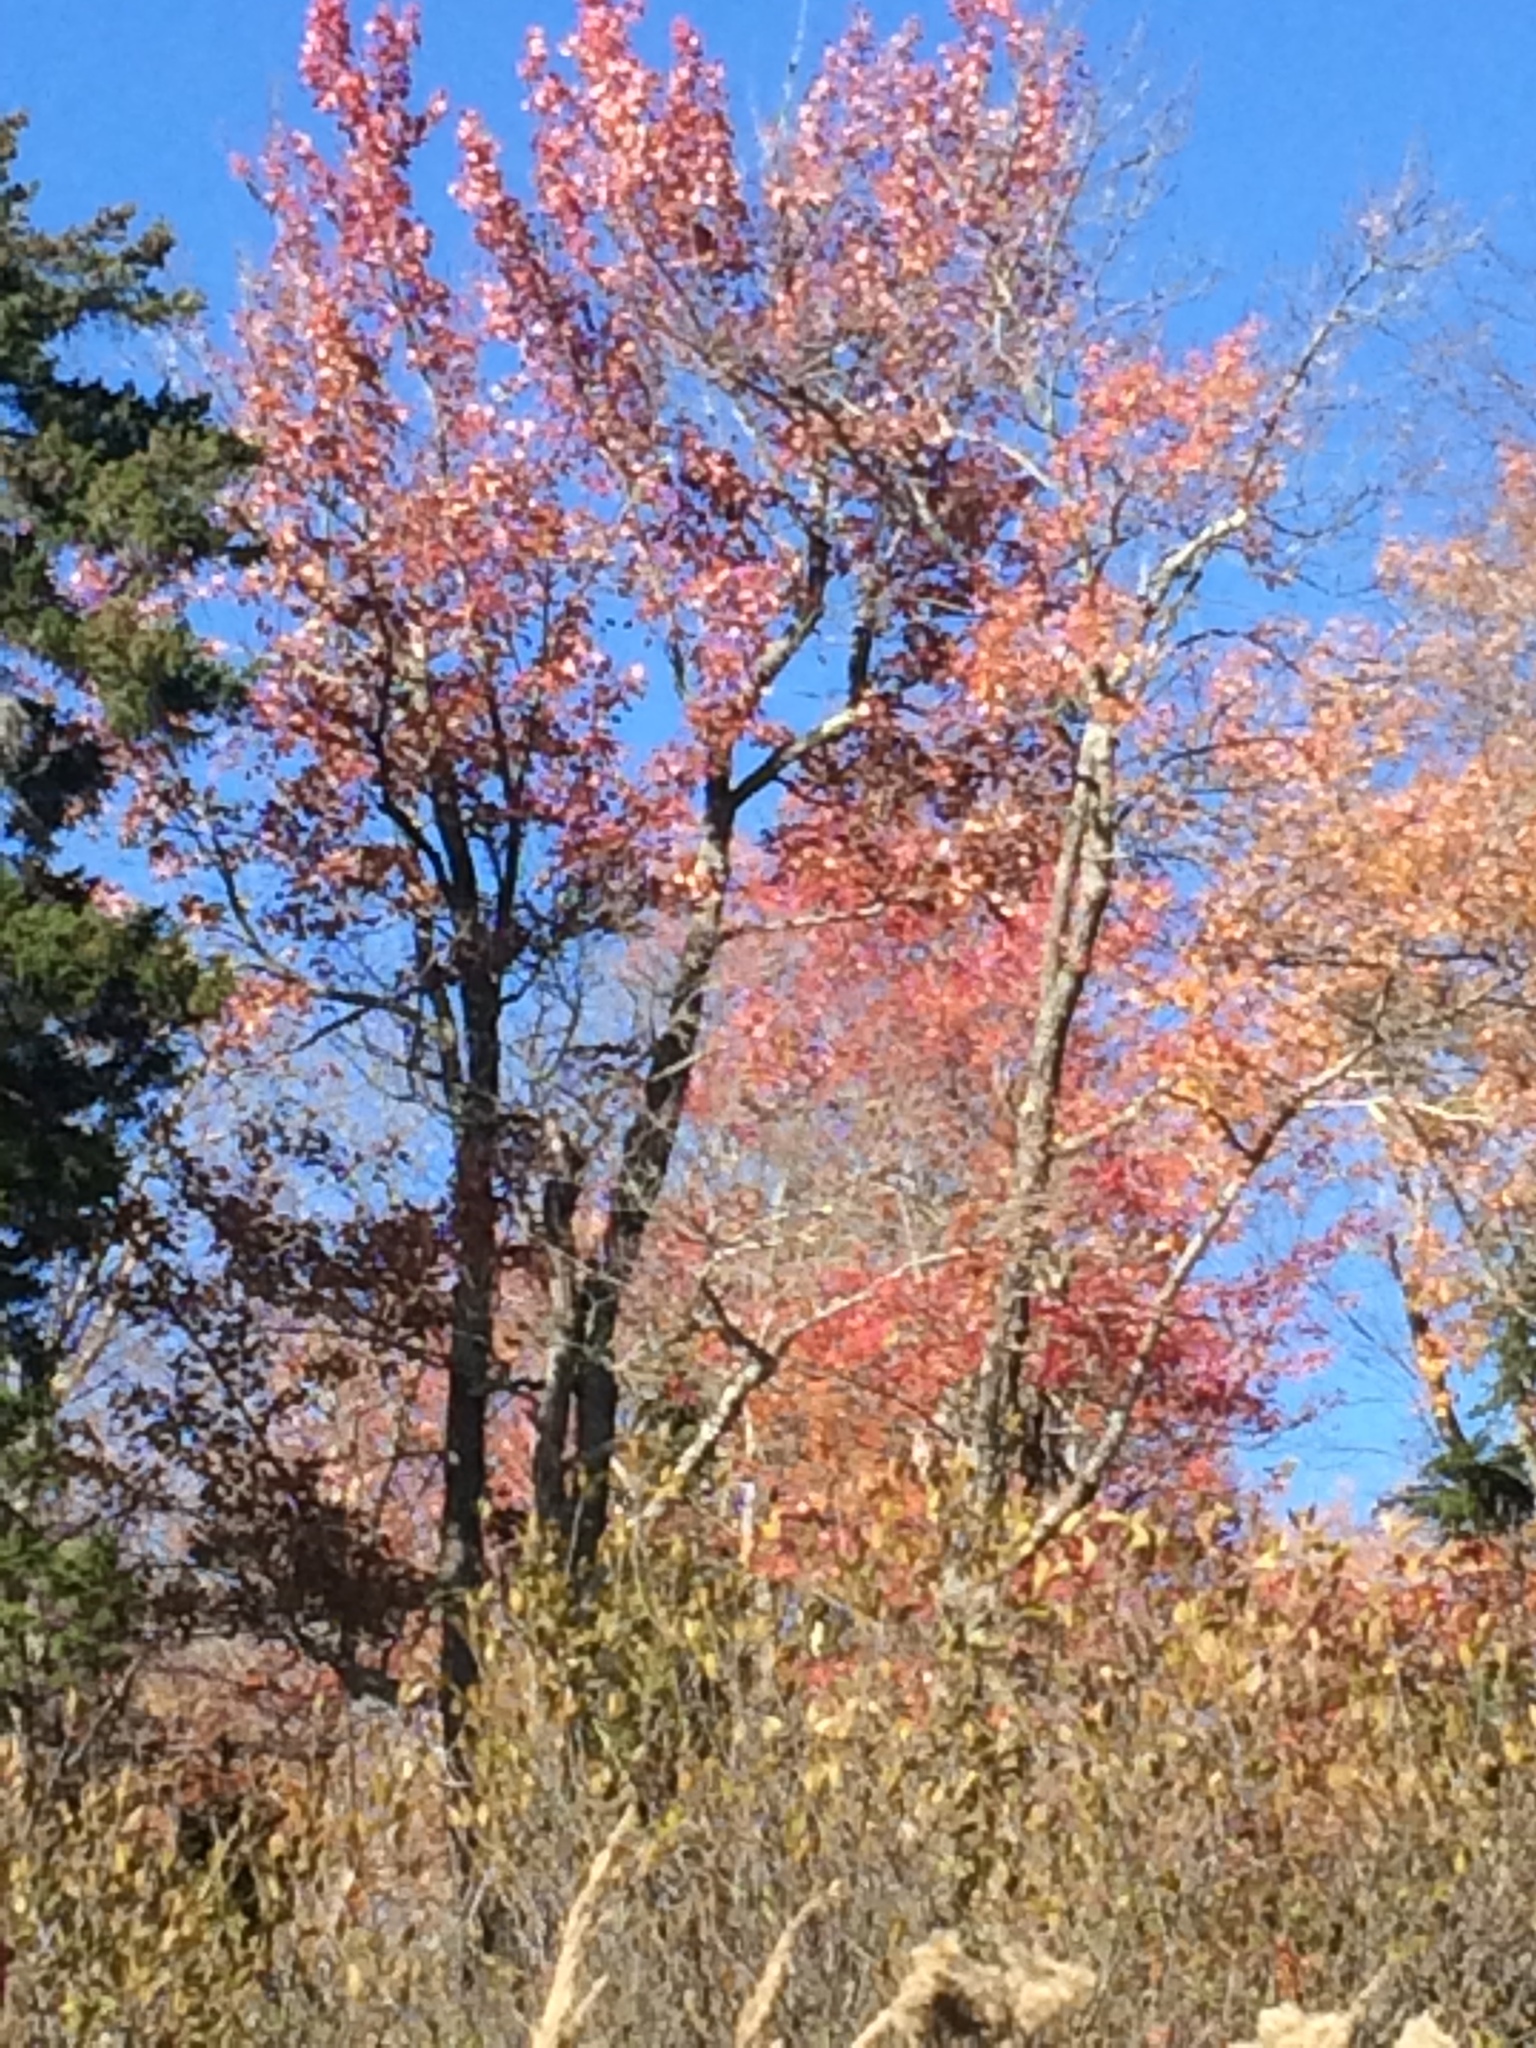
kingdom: Plantae
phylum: Tracheophyta
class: Magnoliopsida
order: Sapindales
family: Sapindaceae
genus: Acer
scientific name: Acer rubrum
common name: Red maple
